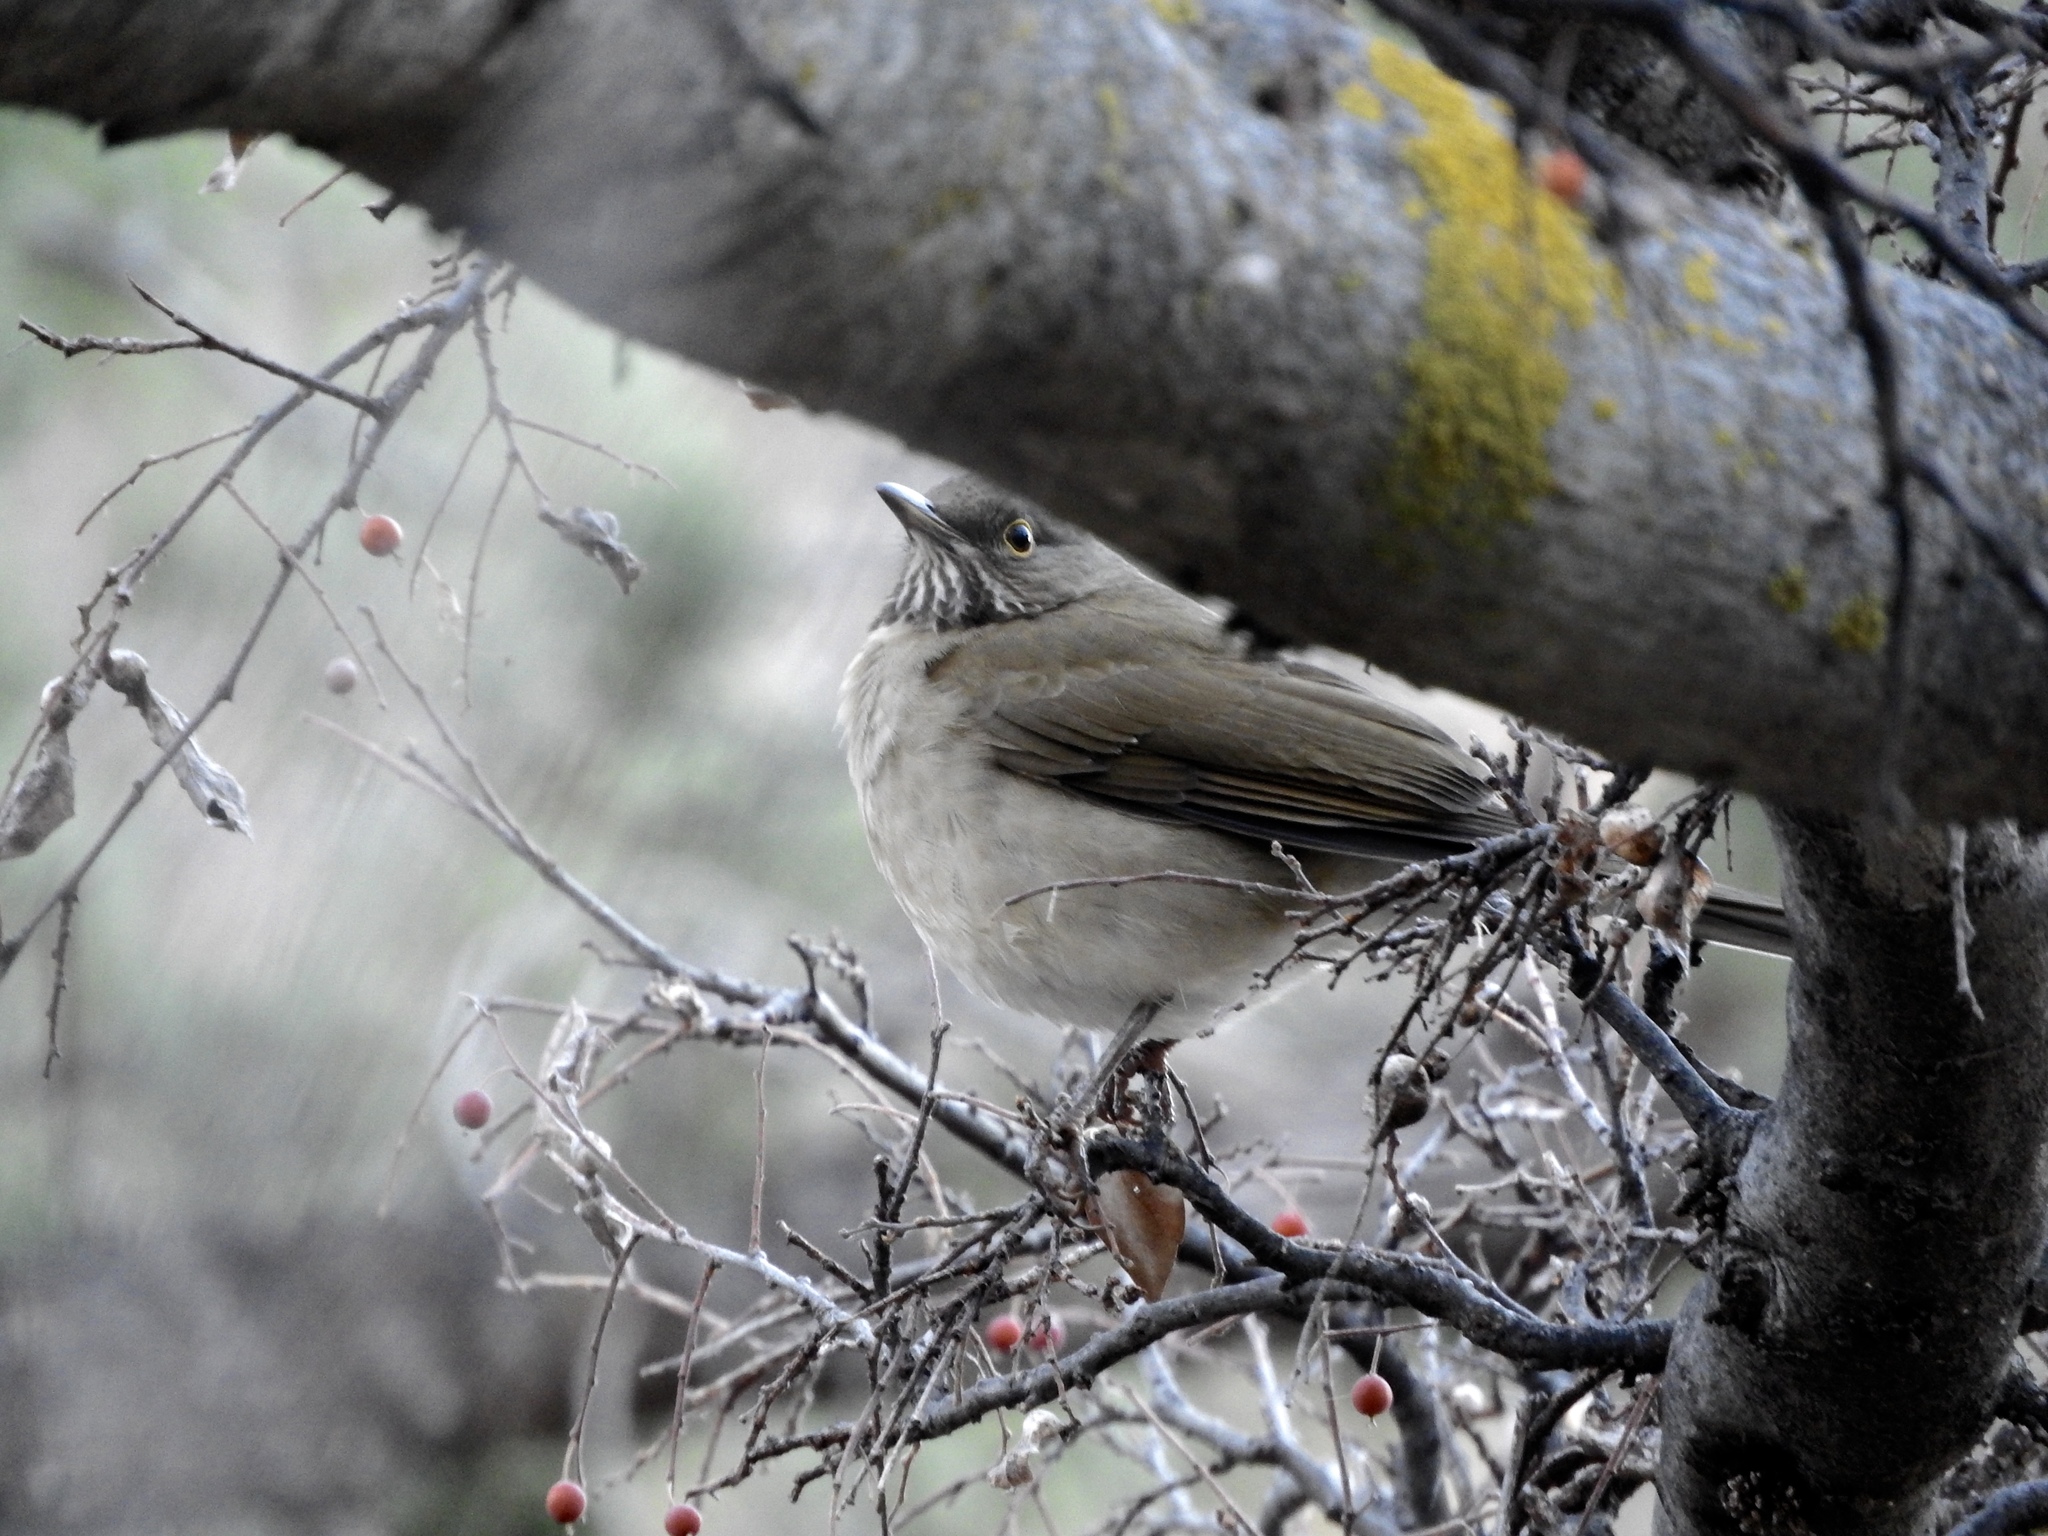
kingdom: Animalia
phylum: Chordata
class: Aves
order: Passeriformes
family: Turdidae
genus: Turdus
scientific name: Turdus assimilis
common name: White-throated thrush
